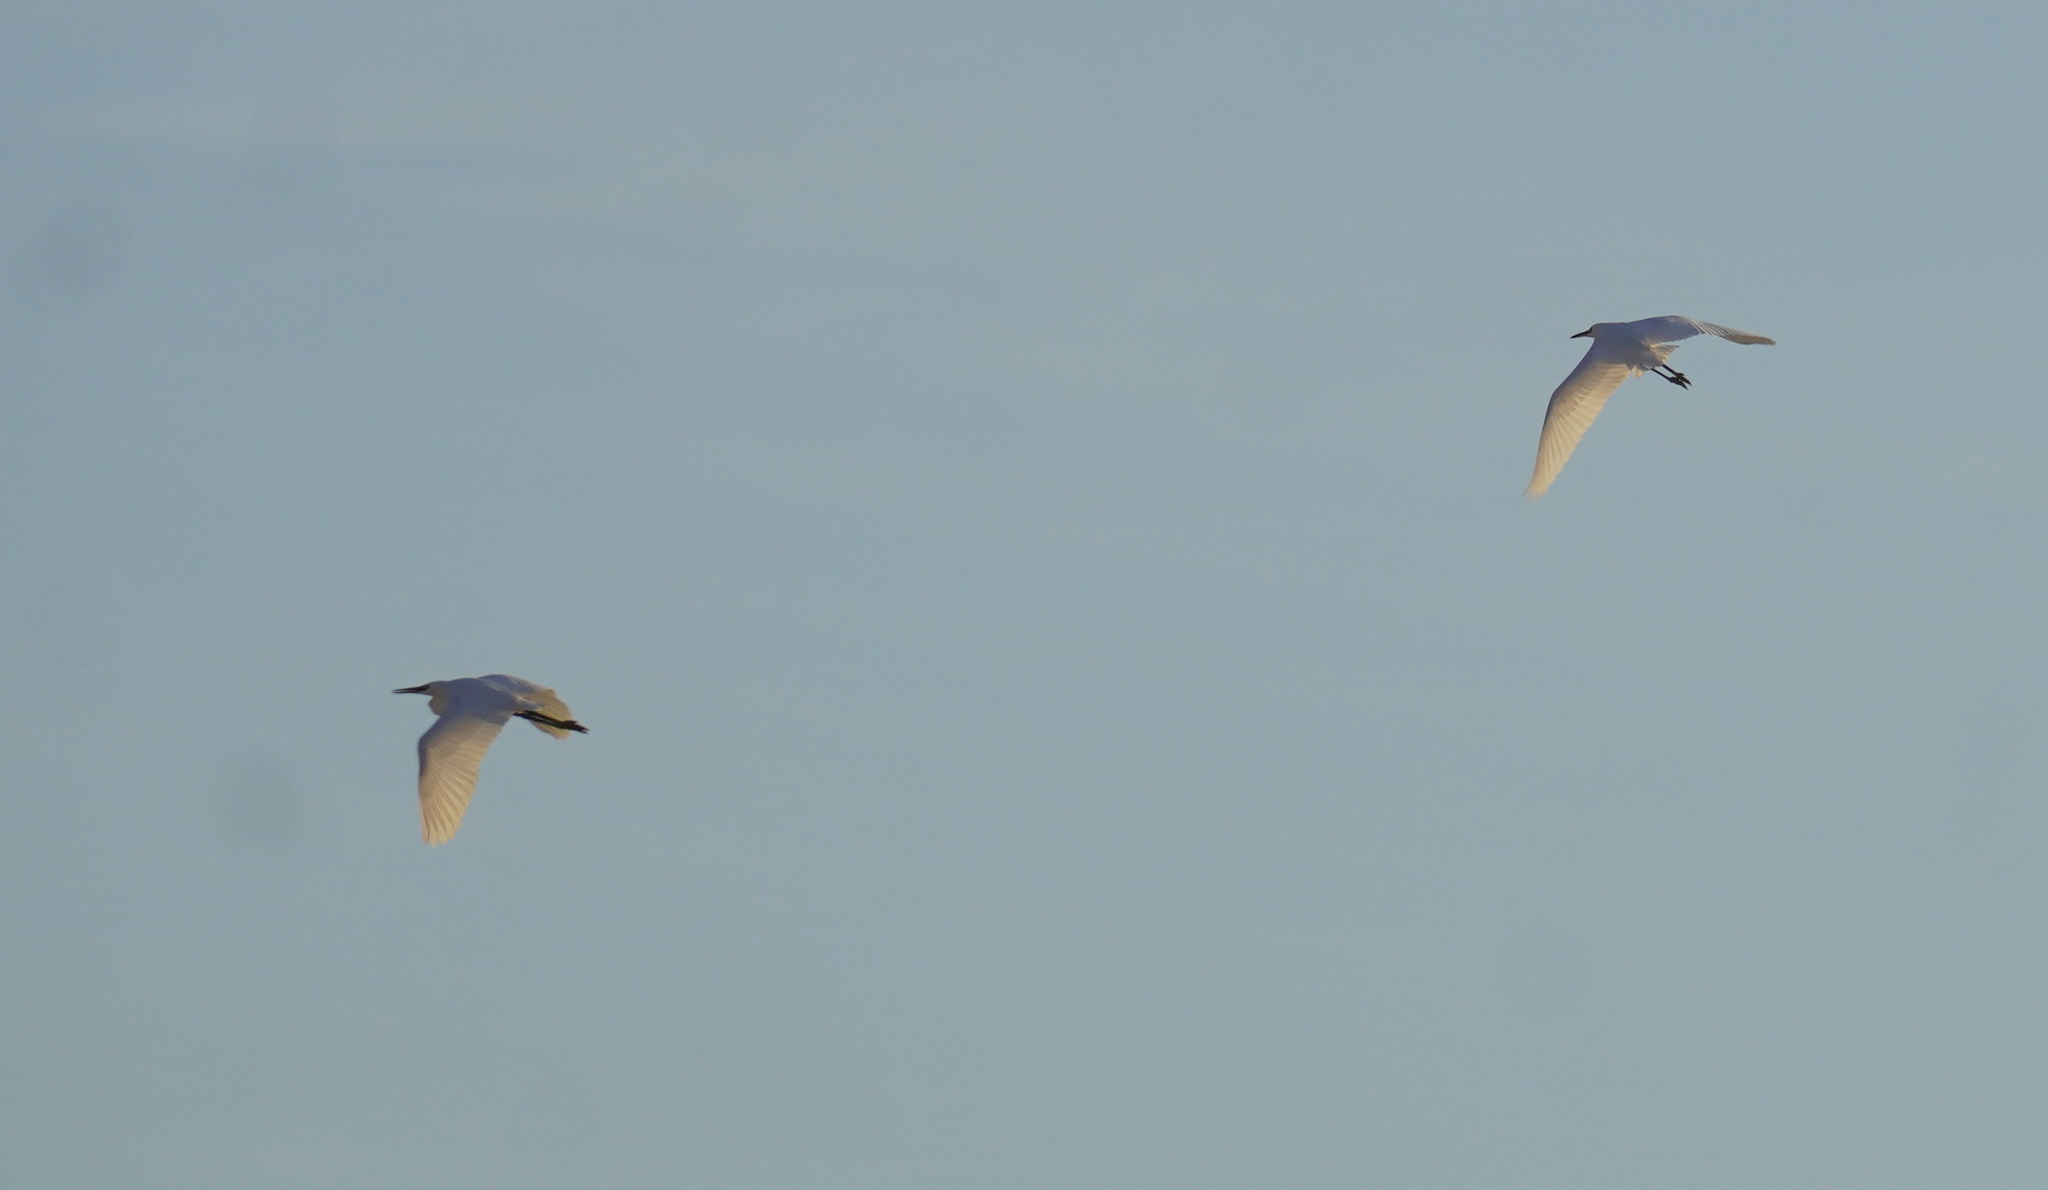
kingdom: Animalia
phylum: Chordata
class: Aves
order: Pelecaniformes
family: Ardeidae
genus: Egretta
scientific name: Egretta garzetta
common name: Little egret
